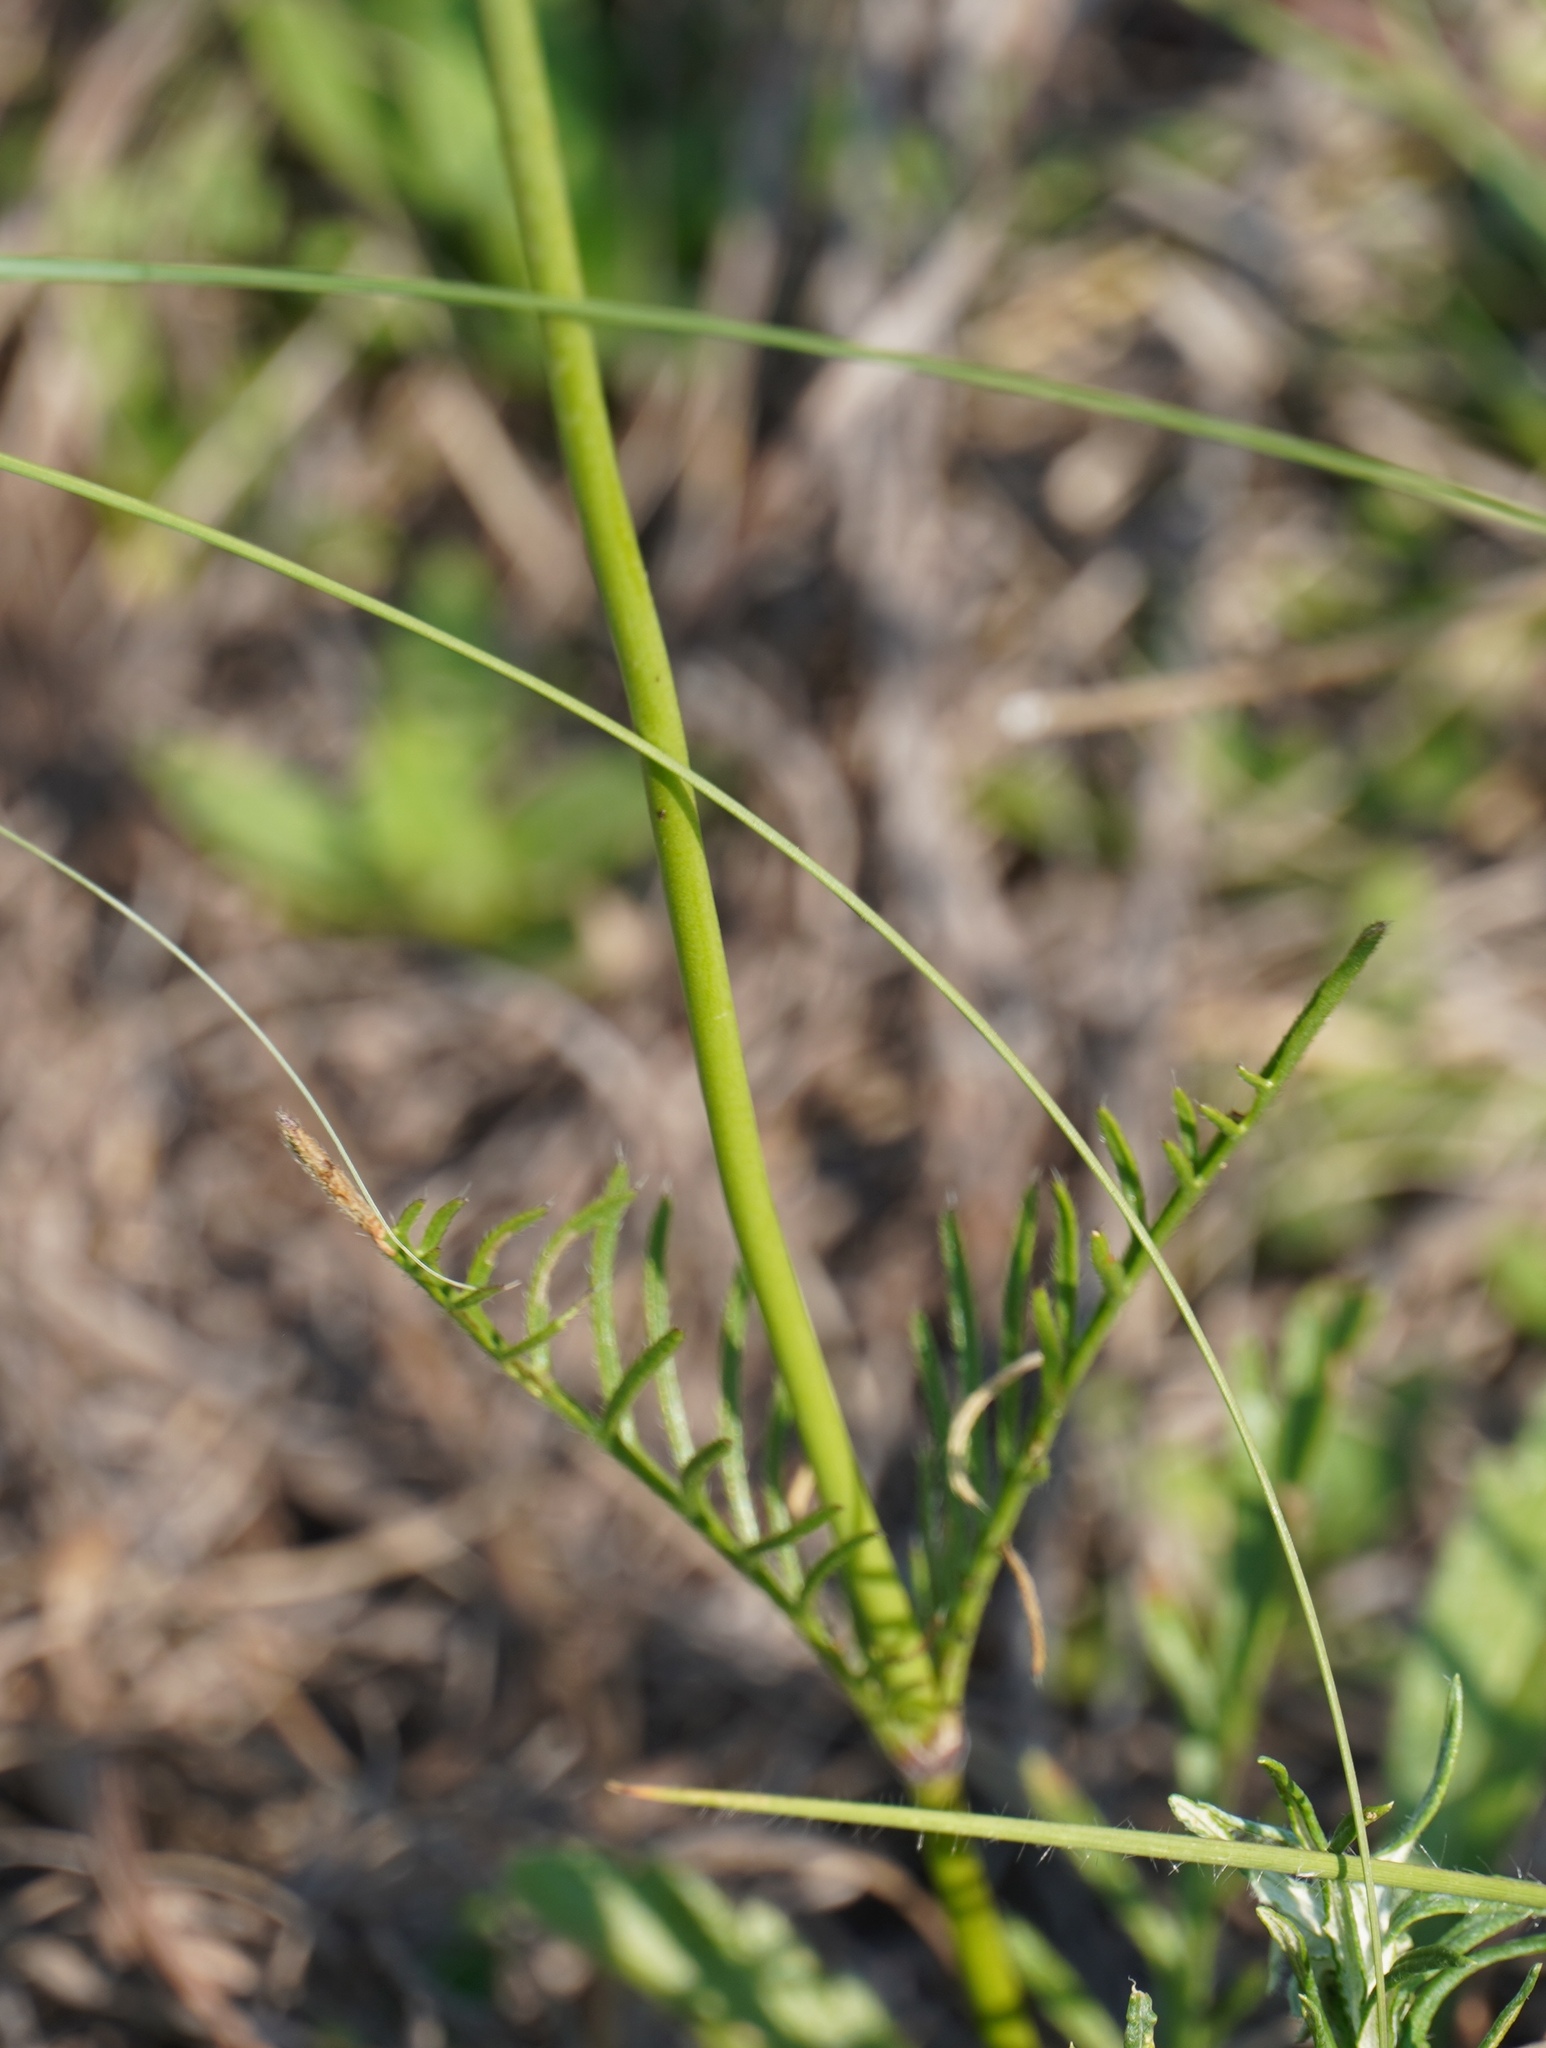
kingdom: Plantae
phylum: Tracheophyta
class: Magnoliopsida
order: Dipsacales
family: Caprifoliaceae
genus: Scabiosa
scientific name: Scabiosa columbaria
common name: Small scabious
